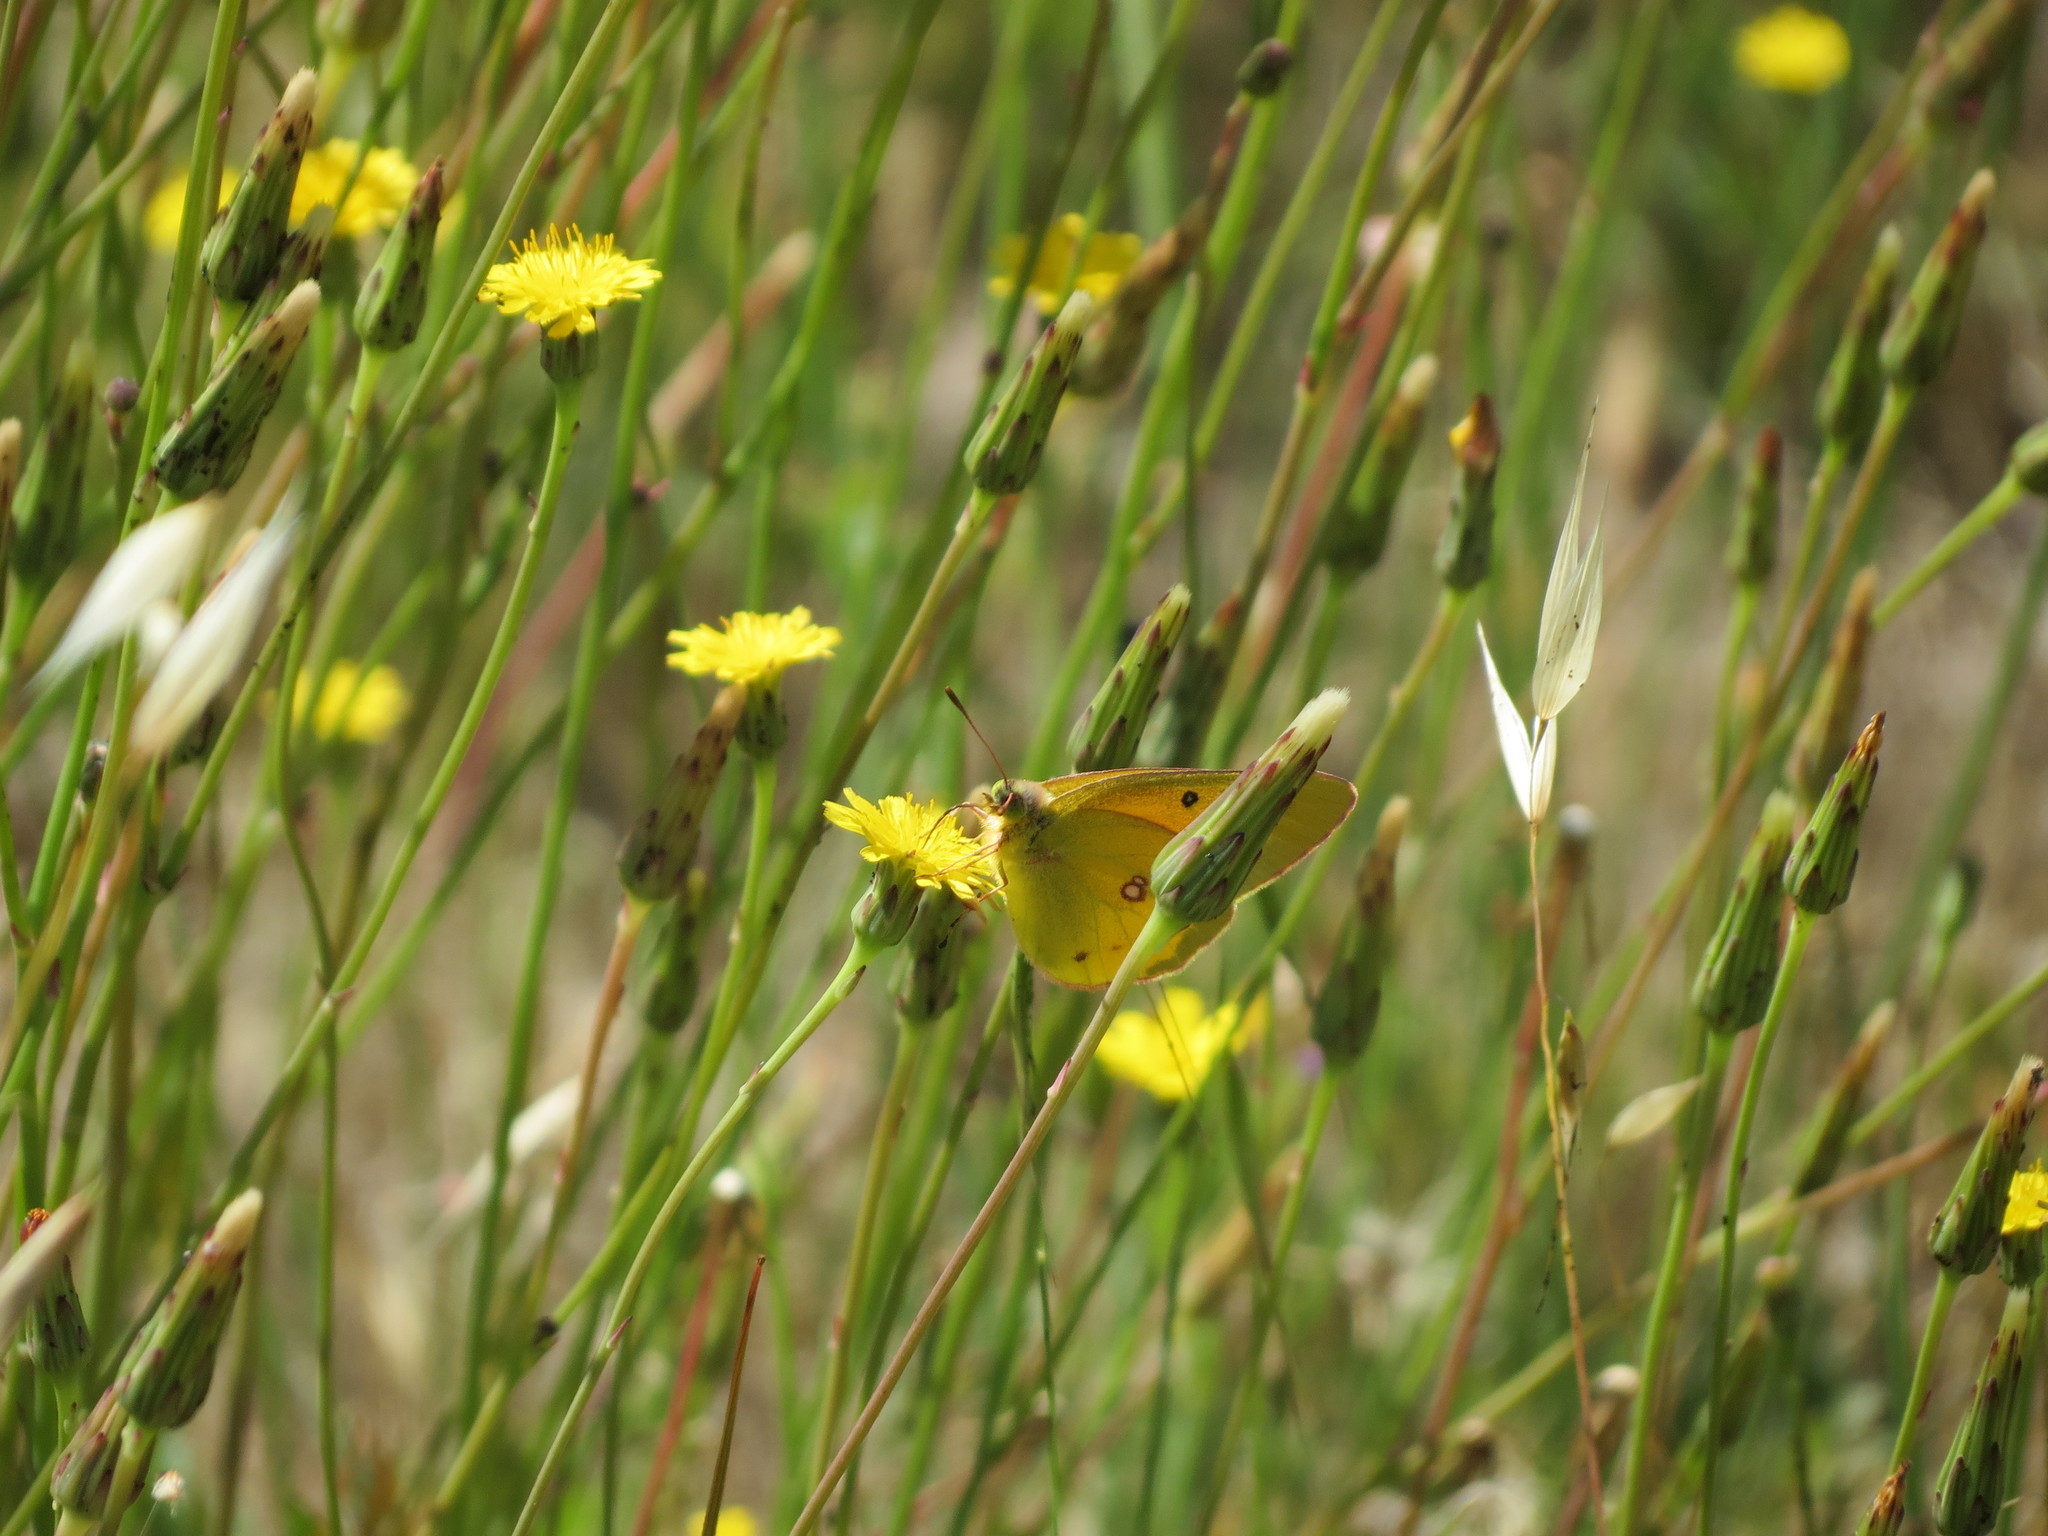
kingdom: Animalia
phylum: Arthropoda
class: Insecta
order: Lepidoptera
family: Pieridae
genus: Colias
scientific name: Colias eurytheme
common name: Alfalfa butterfly
